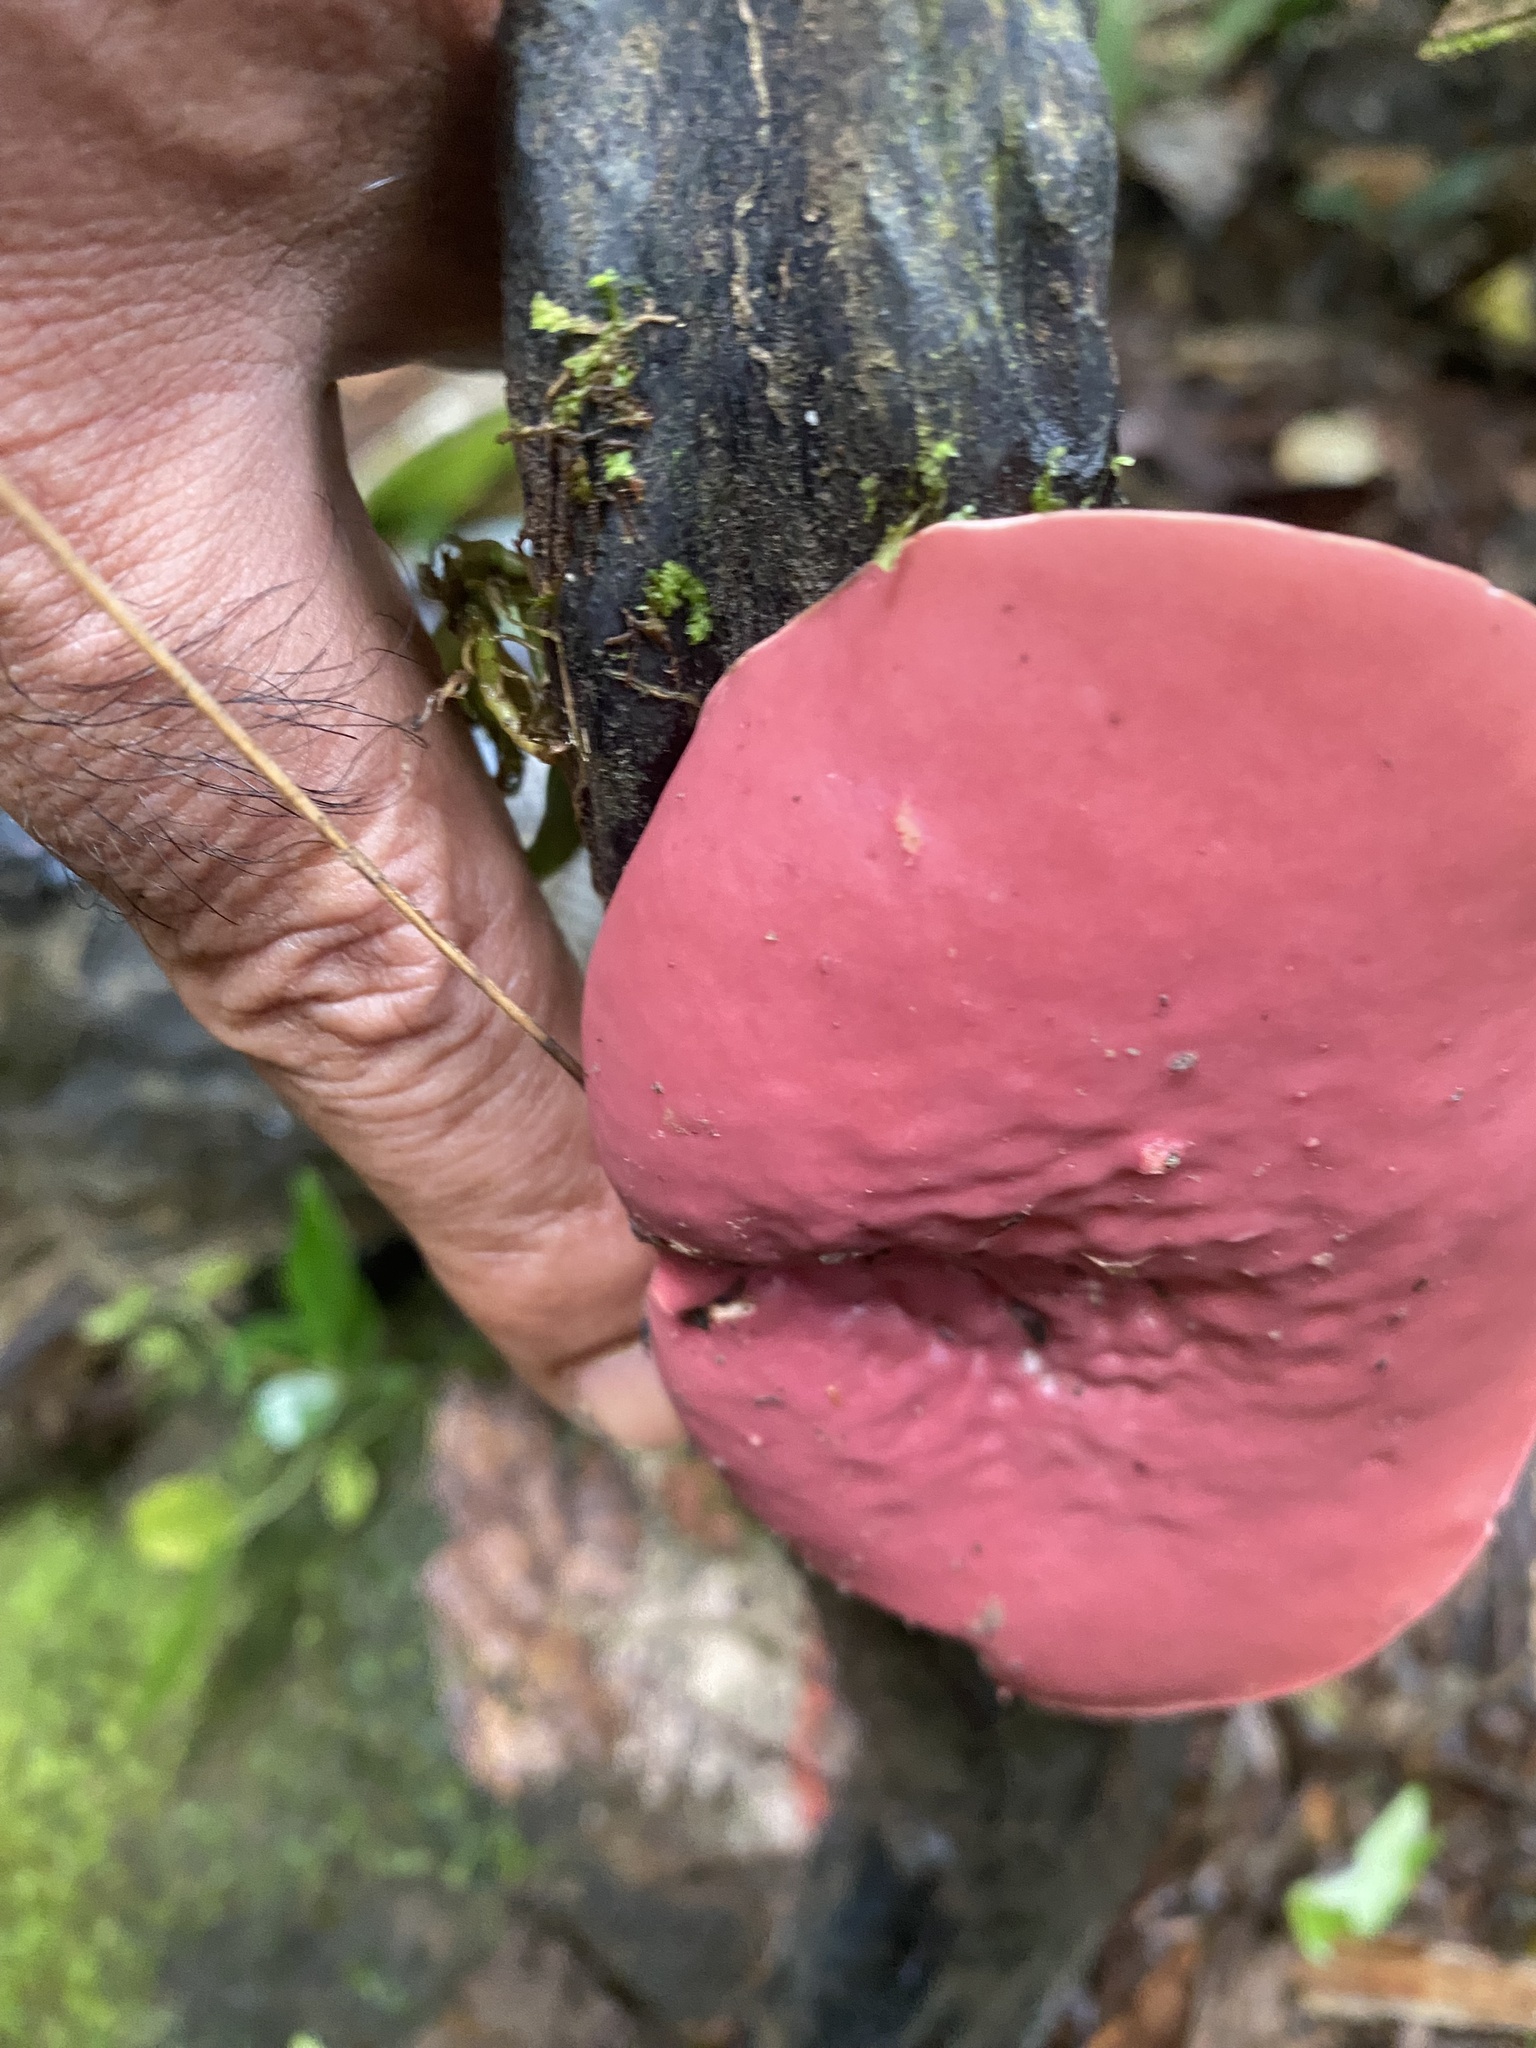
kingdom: Fungi
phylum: Ascomycota
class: Pezizomycetes
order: Pezizales
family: Sarcoscyphaceae
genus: Phillipsia
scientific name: Phillipsia domingensis
